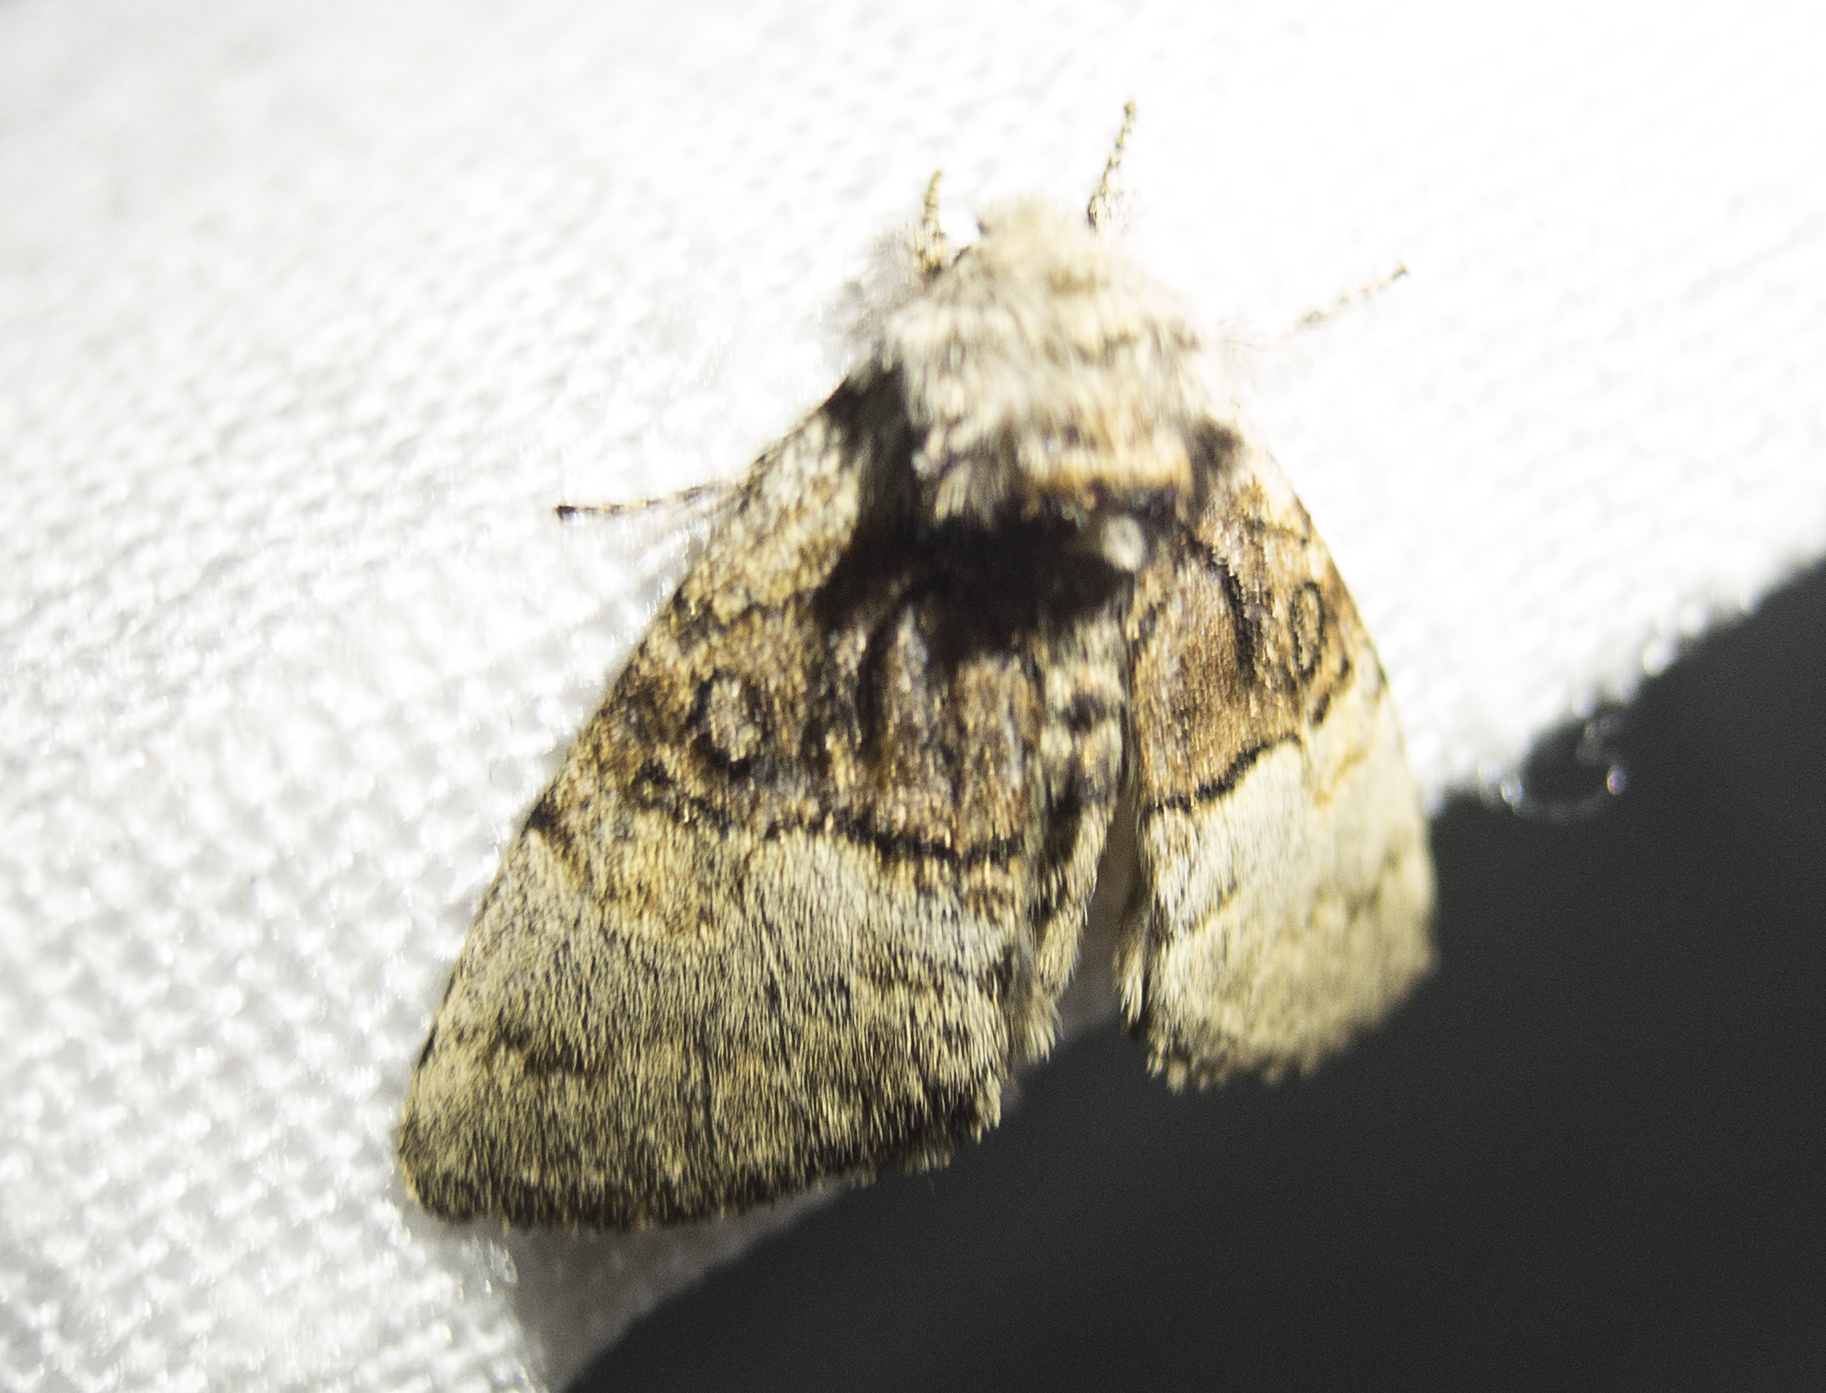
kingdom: Animalia
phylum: Arthropoda
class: Insecta
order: Lepidoptera
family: Noctuidae
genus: Colocasia
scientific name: Colocasia coryli
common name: Nut-tree tussock
